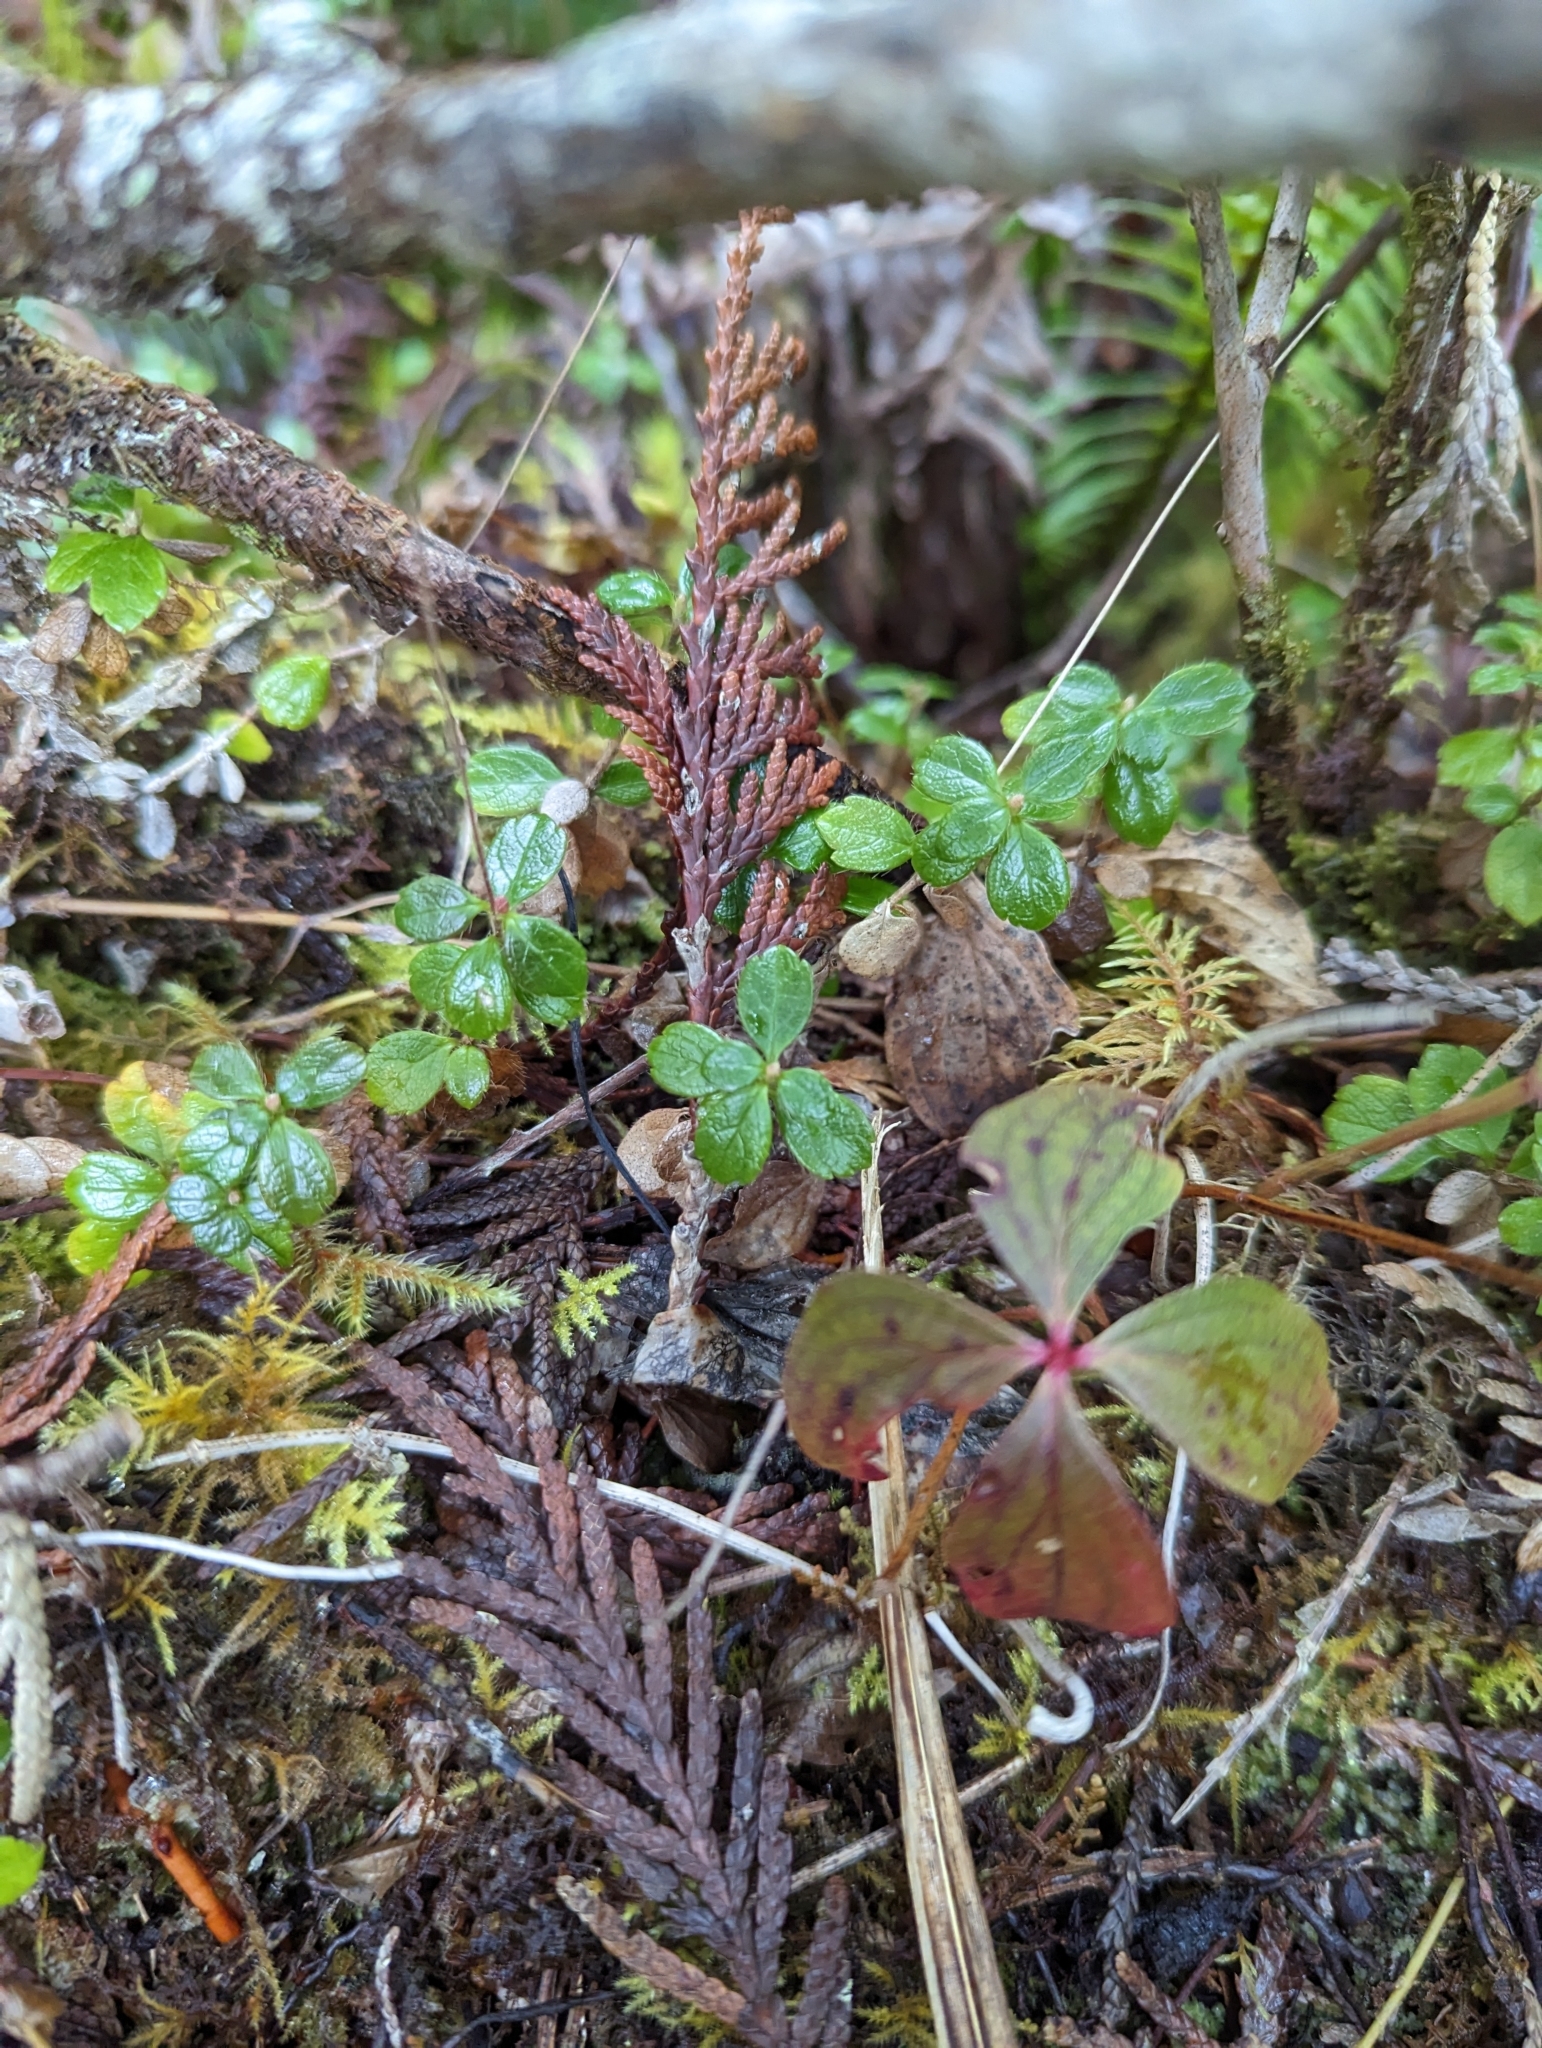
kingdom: Plantae
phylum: Tracheophyta
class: Magnoliopsida
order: Dipsacales
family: Caprifoliaceae
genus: Linnaea
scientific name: Linnaea borealis
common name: Twinflower
